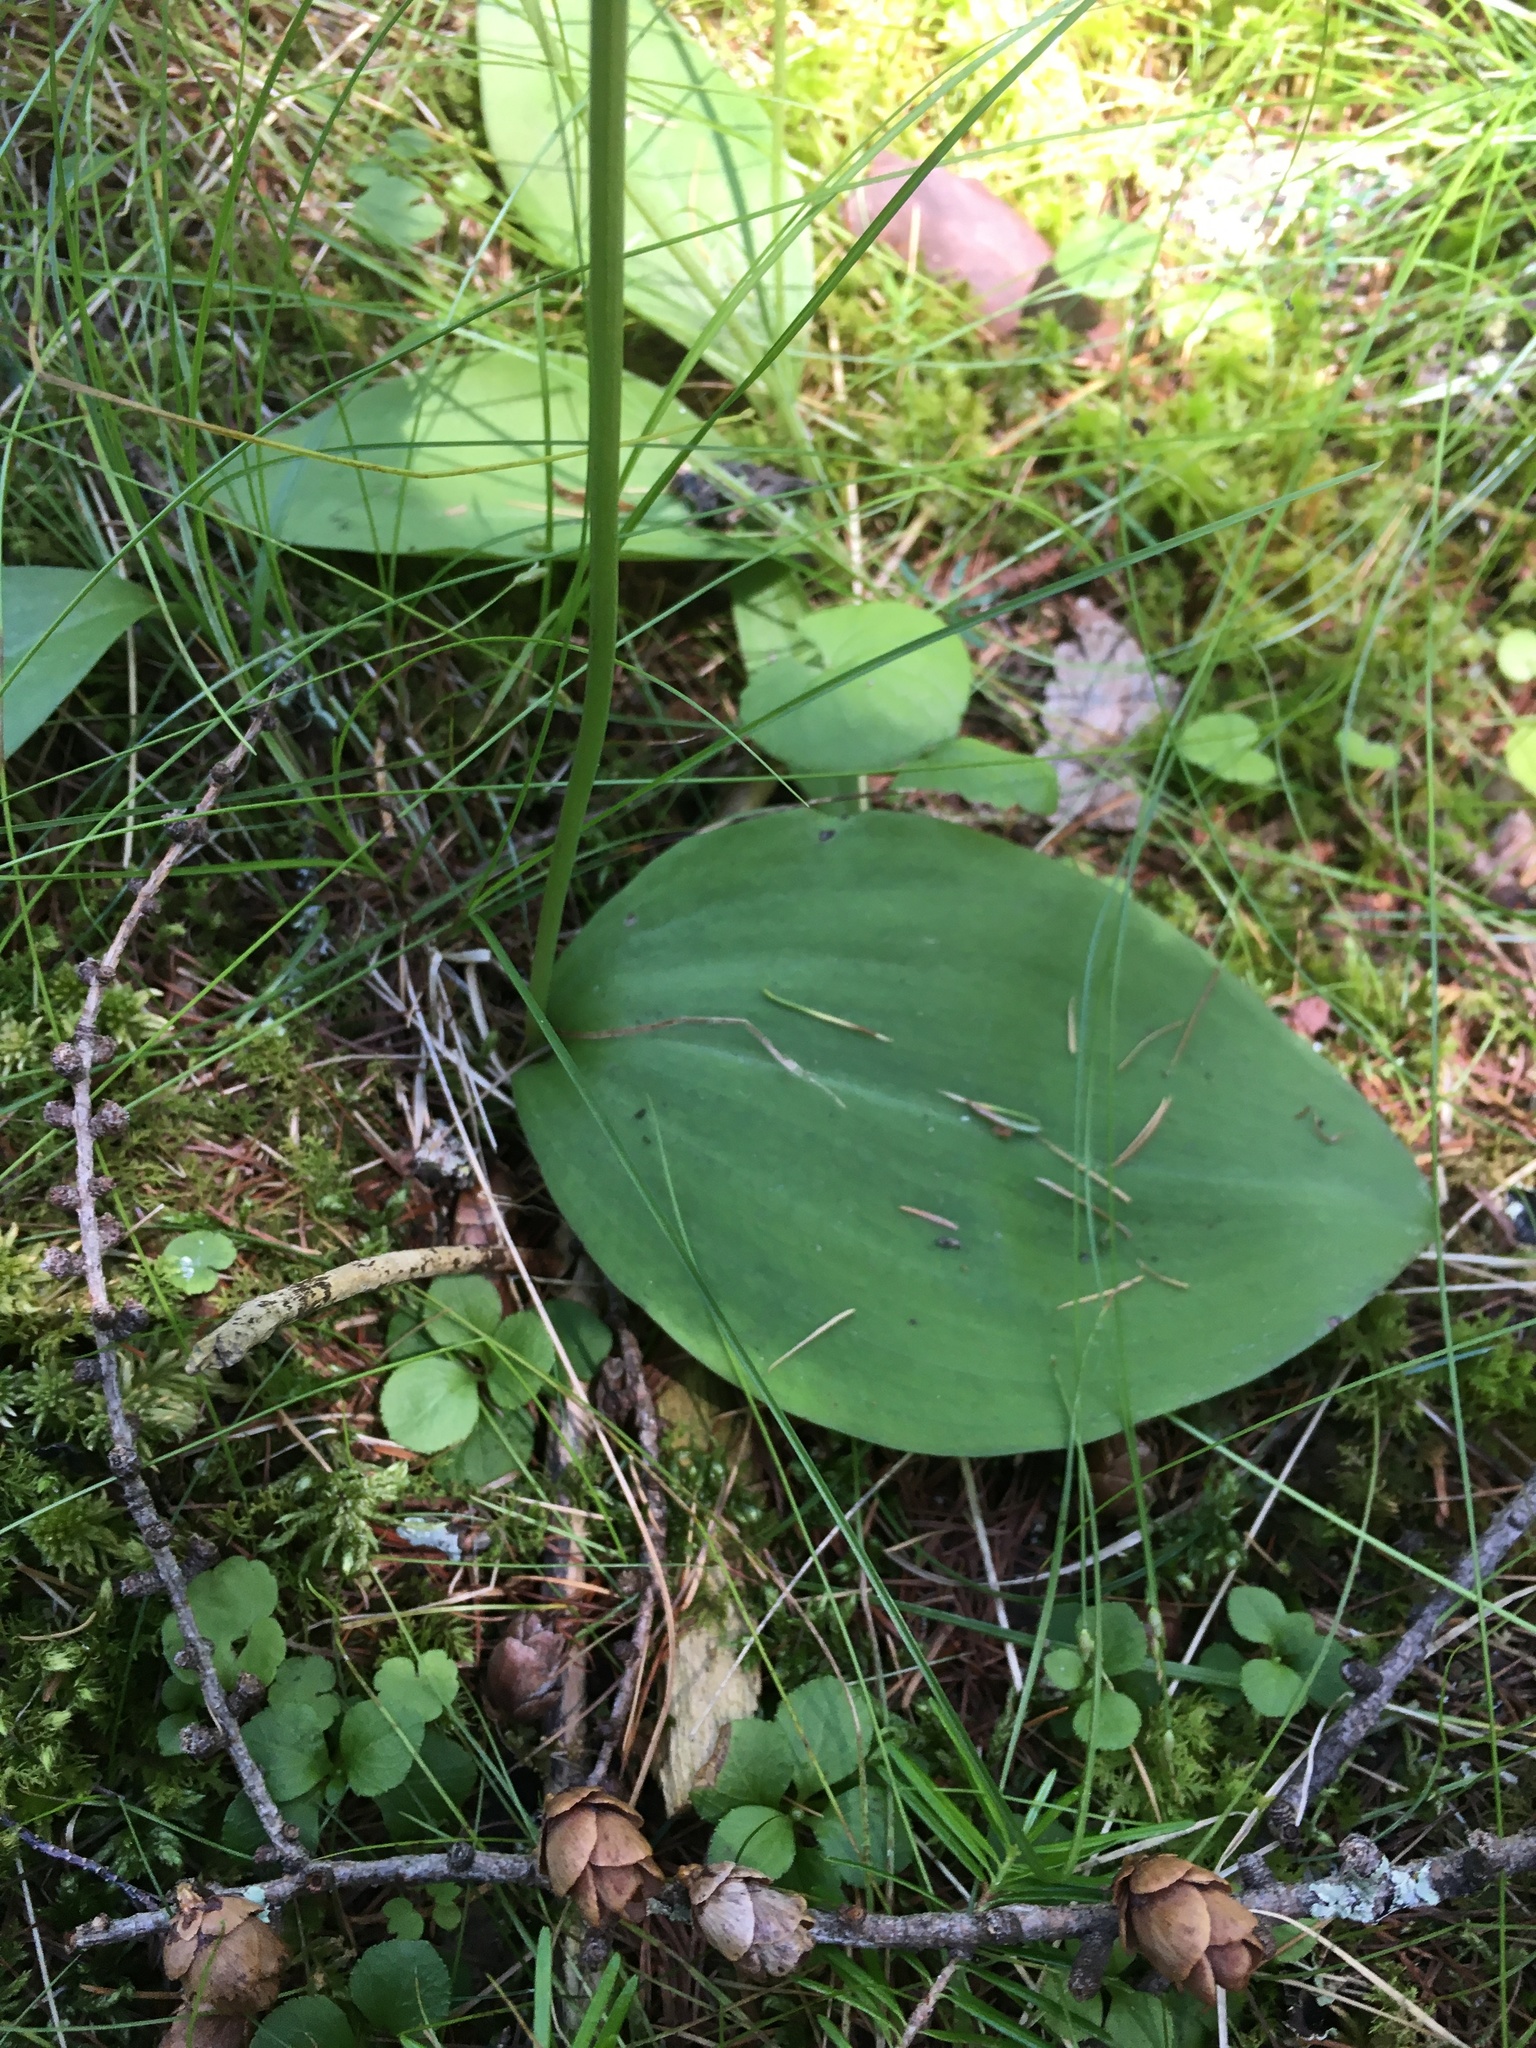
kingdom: Plantae
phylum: Tracheophyta
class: Liliopsida
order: Asparagales
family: Orchidaceae
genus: Galearis
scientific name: Galearis rotundifolia
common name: One-leaved orchis
